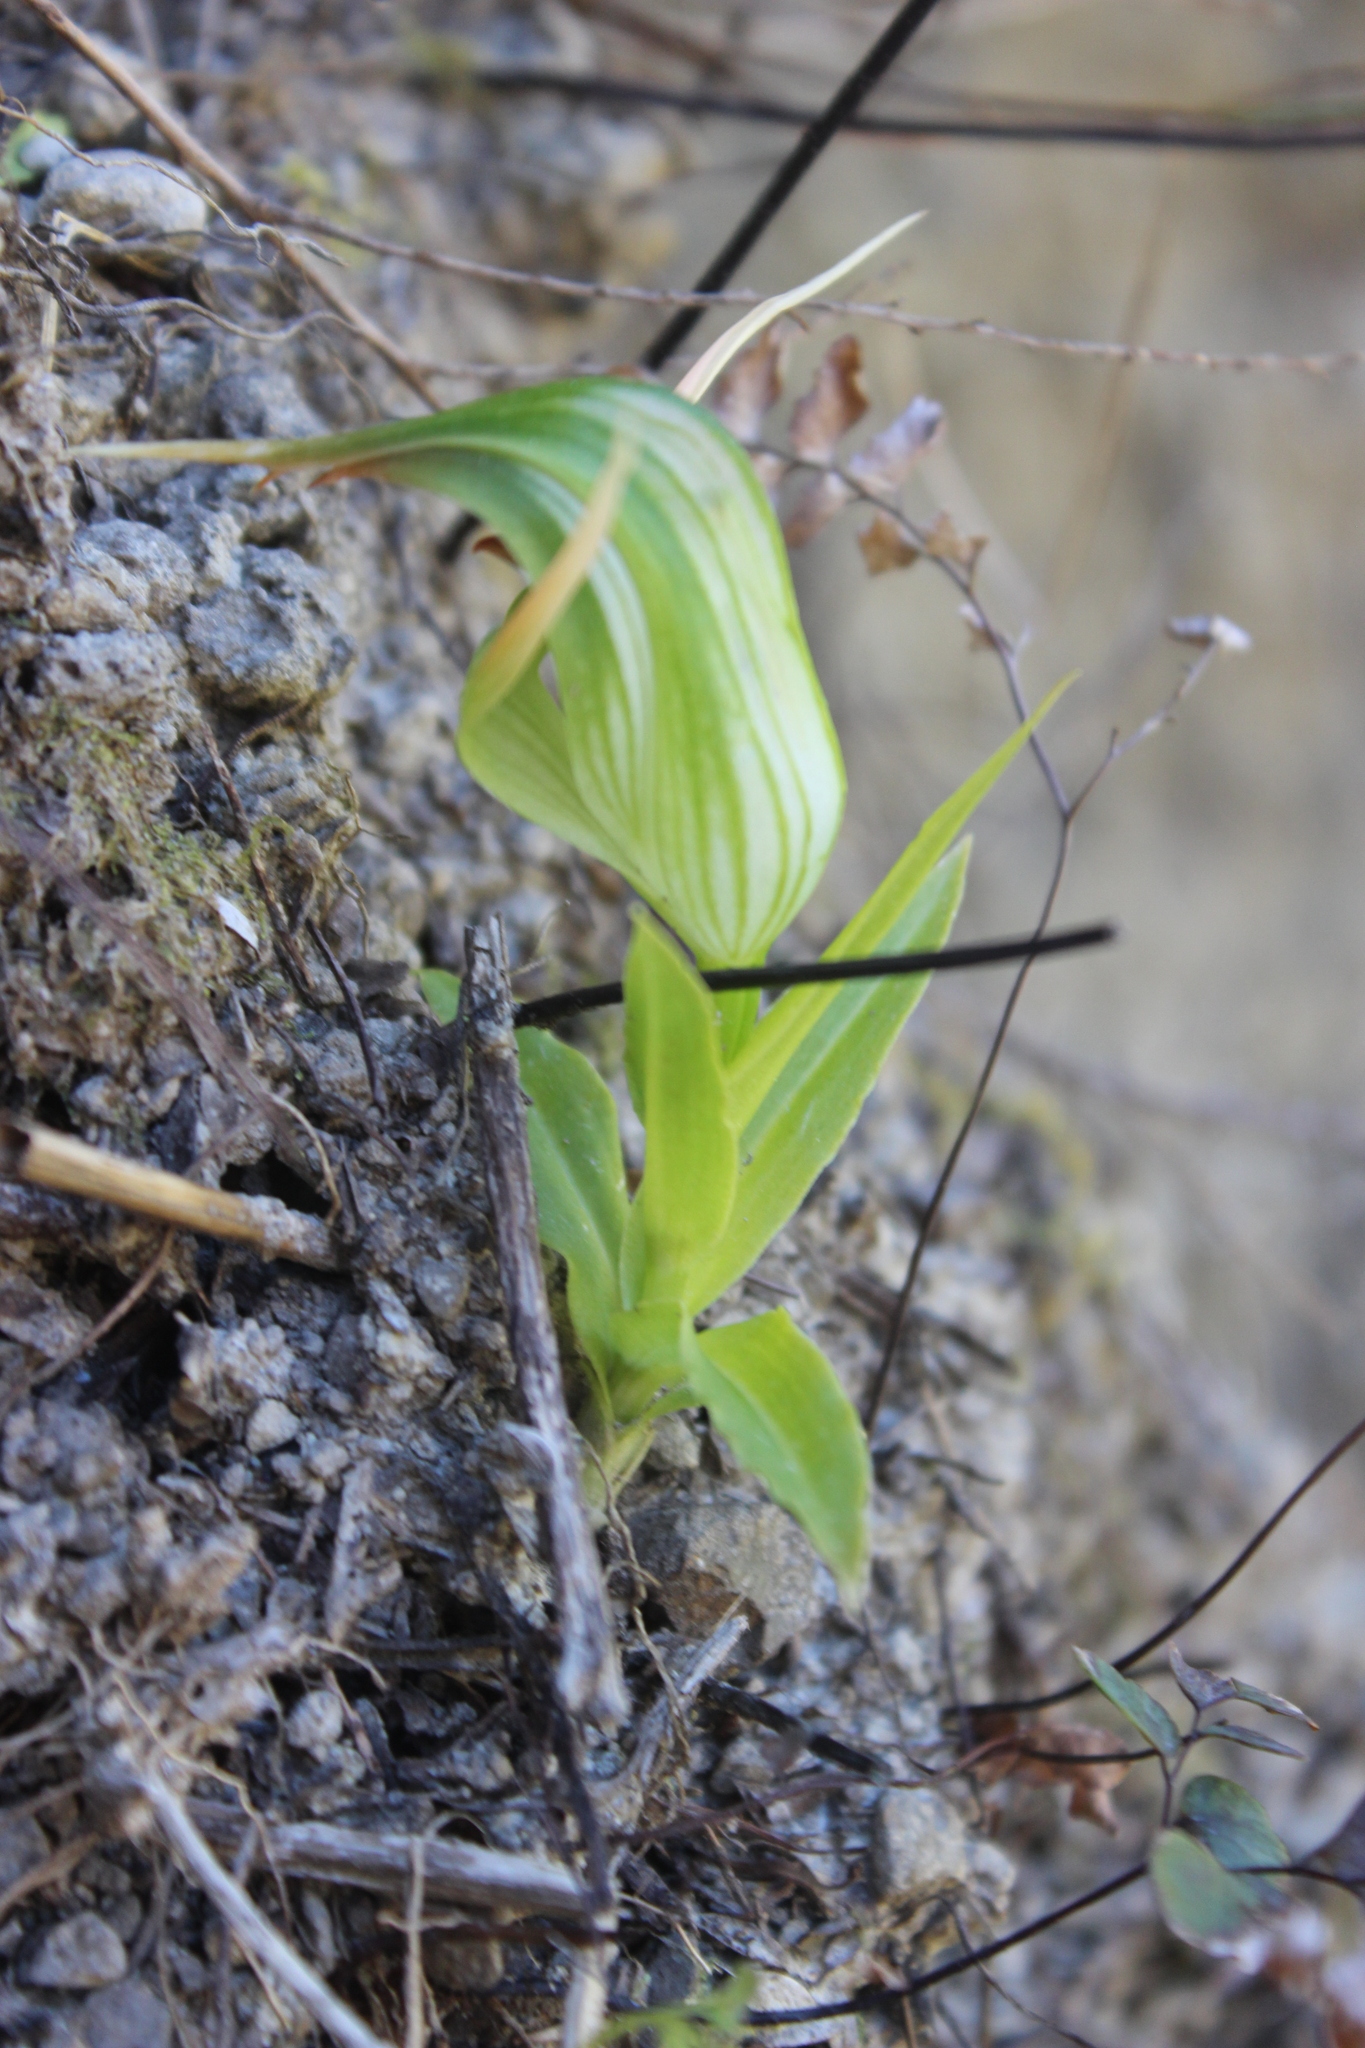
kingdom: Plantae
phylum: Tracheophyta
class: Liliopsida
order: Asparagales
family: Orchidaceae
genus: Pterostylis
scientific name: Pterostylis banksii
